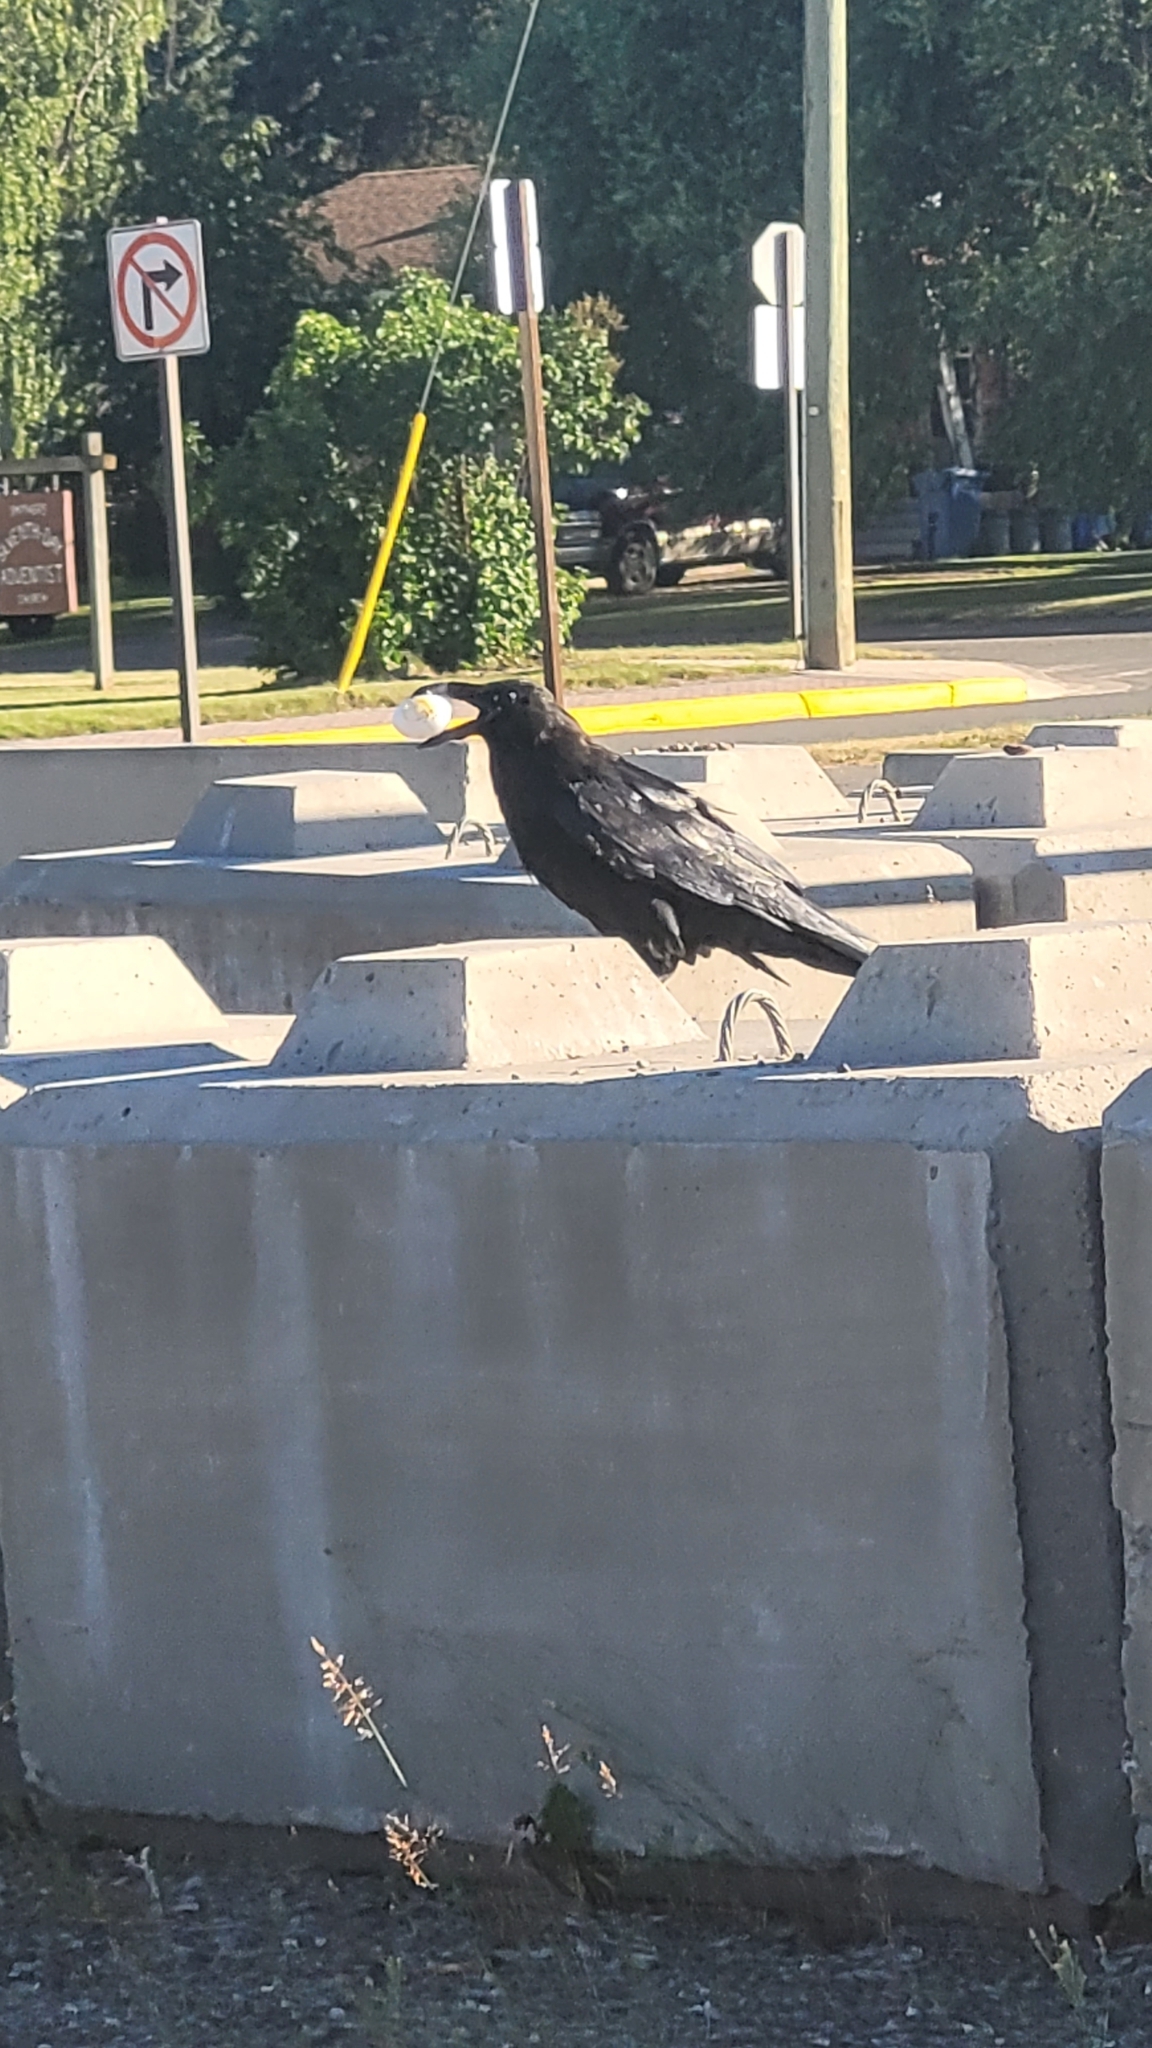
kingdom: Animalia
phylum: Chordata
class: Aves
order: Passeriformes
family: Corvidae
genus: Corvus
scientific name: Corvus corax
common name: Common raven
